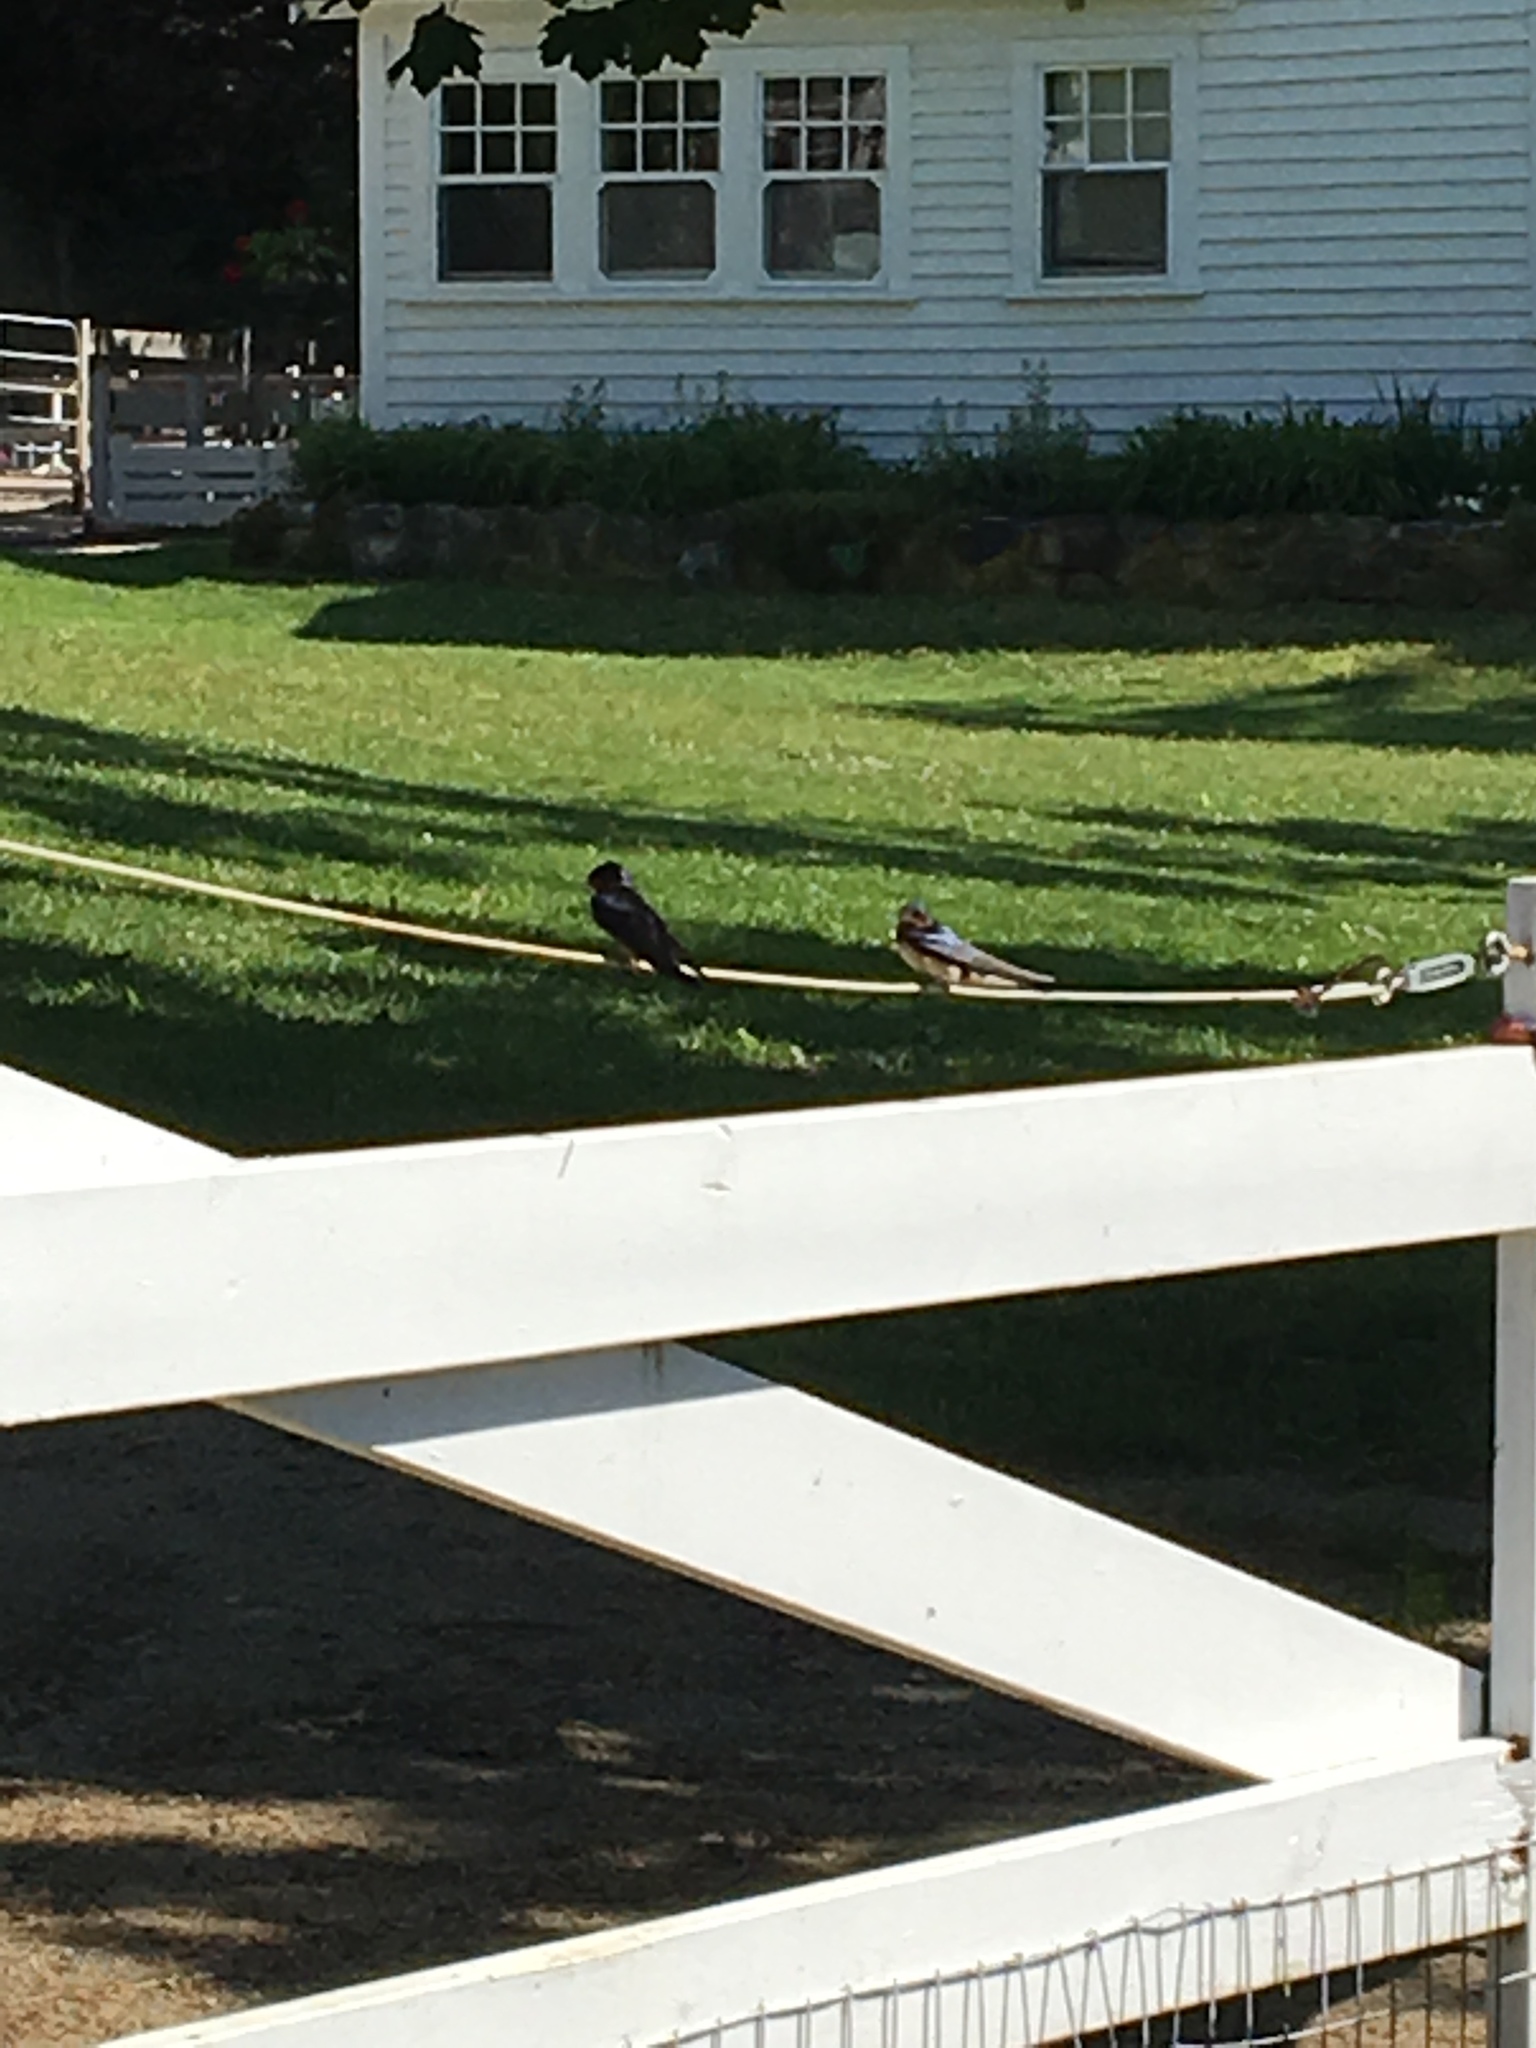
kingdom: Animalia
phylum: Chordata
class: Aves
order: Passeriformes
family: Hirundinidae
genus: Hirundo
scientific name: Hirundo rustica
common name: Barn swallow
